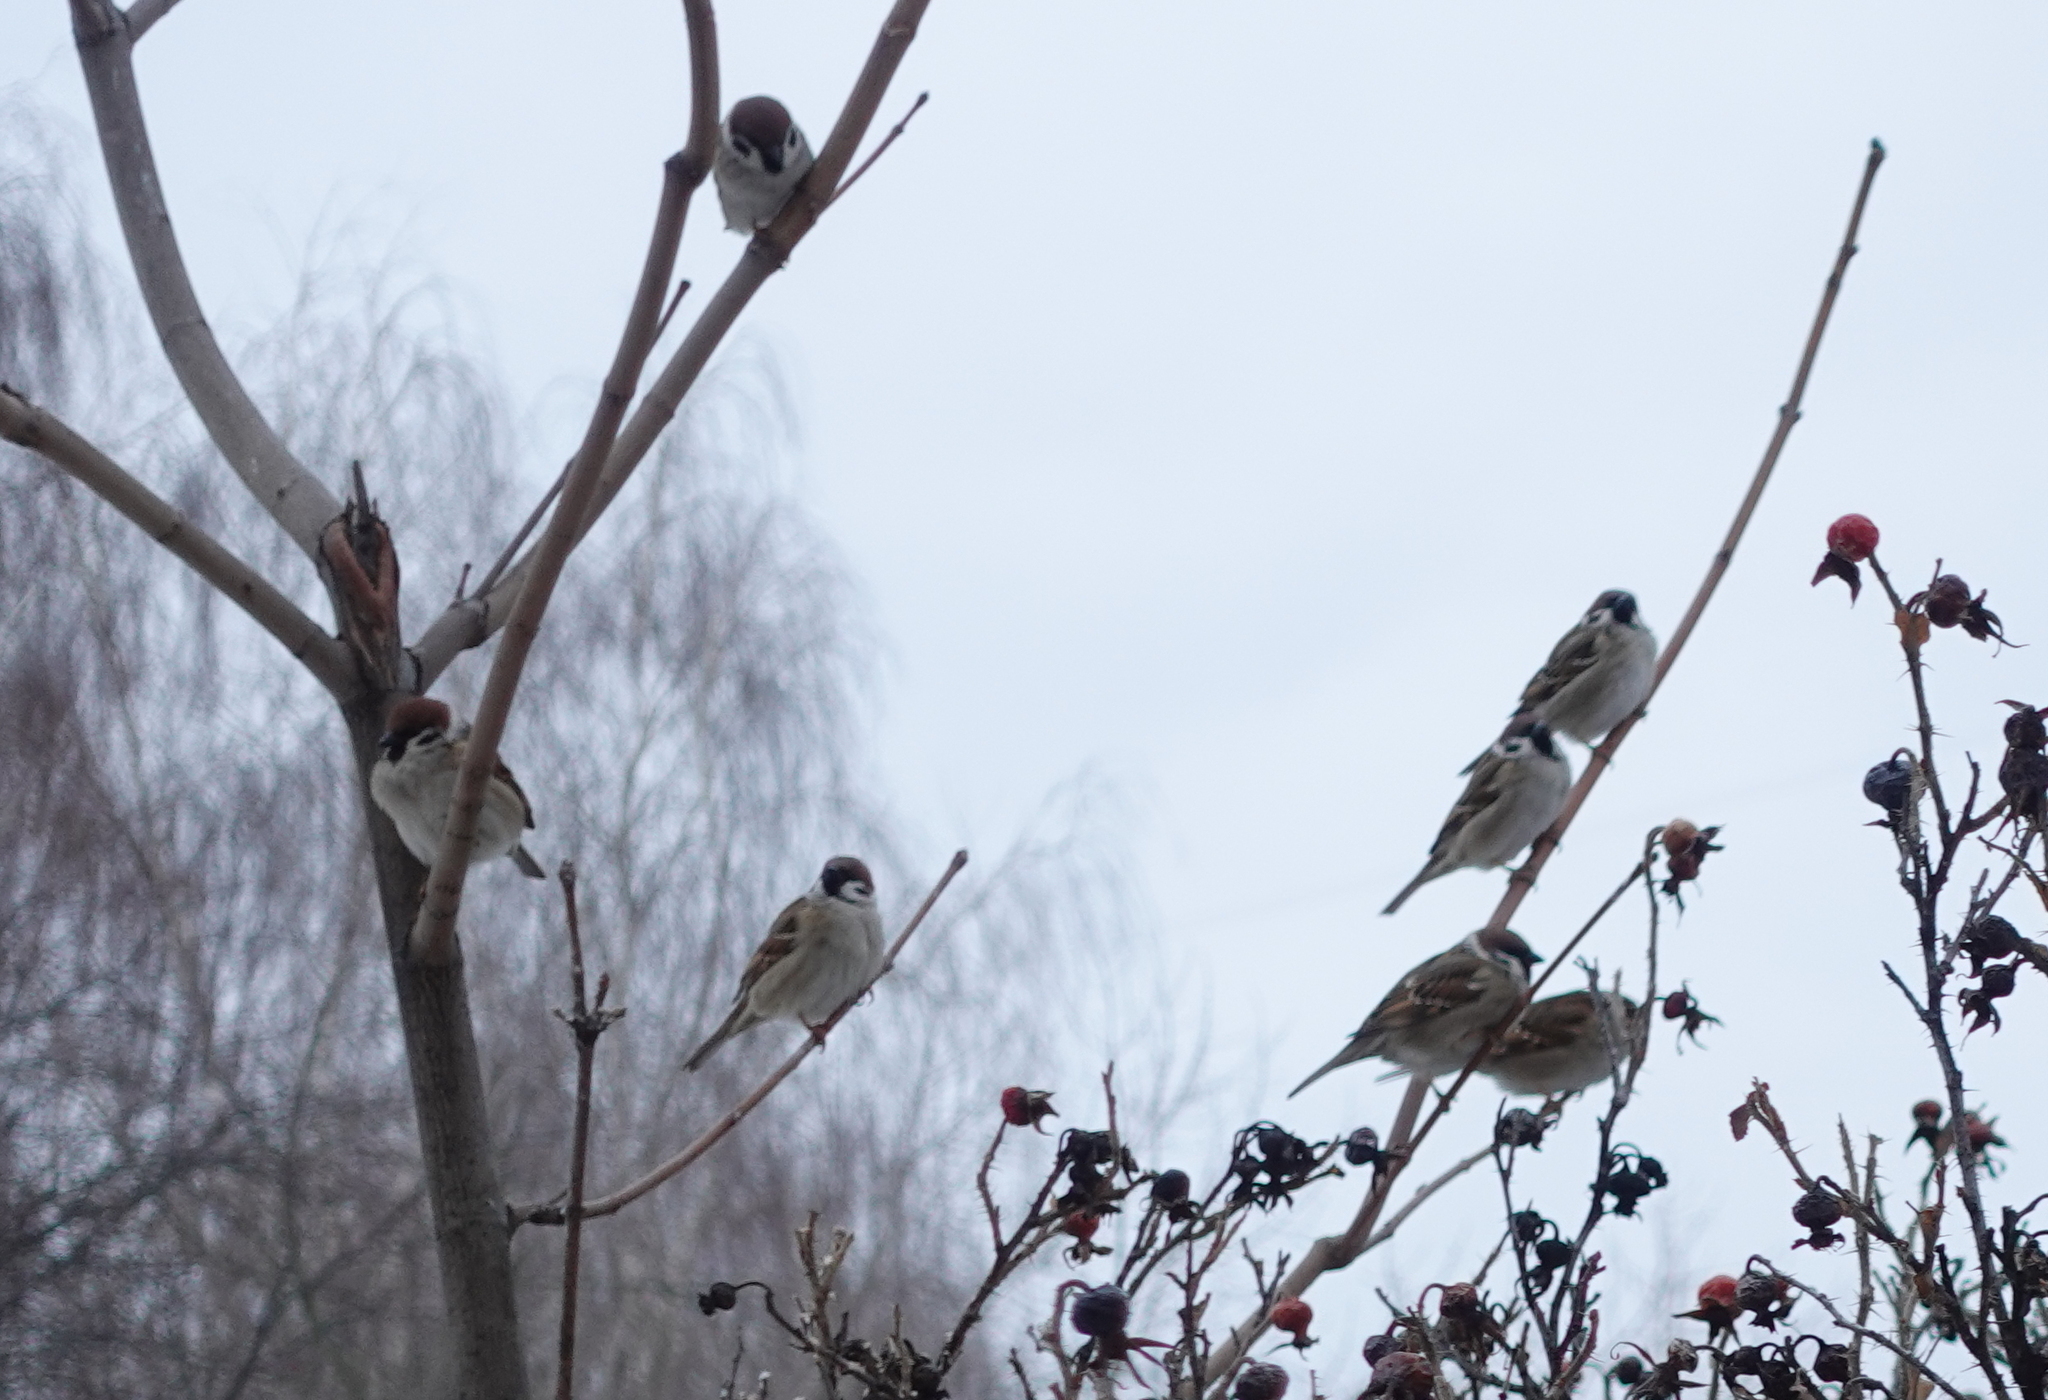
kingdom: Animalia
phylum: Chordata
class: Aves
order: Passeriformes
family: Passeridae
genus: Passer
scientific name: Passer montanus
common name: Eurasian tree sparrow
